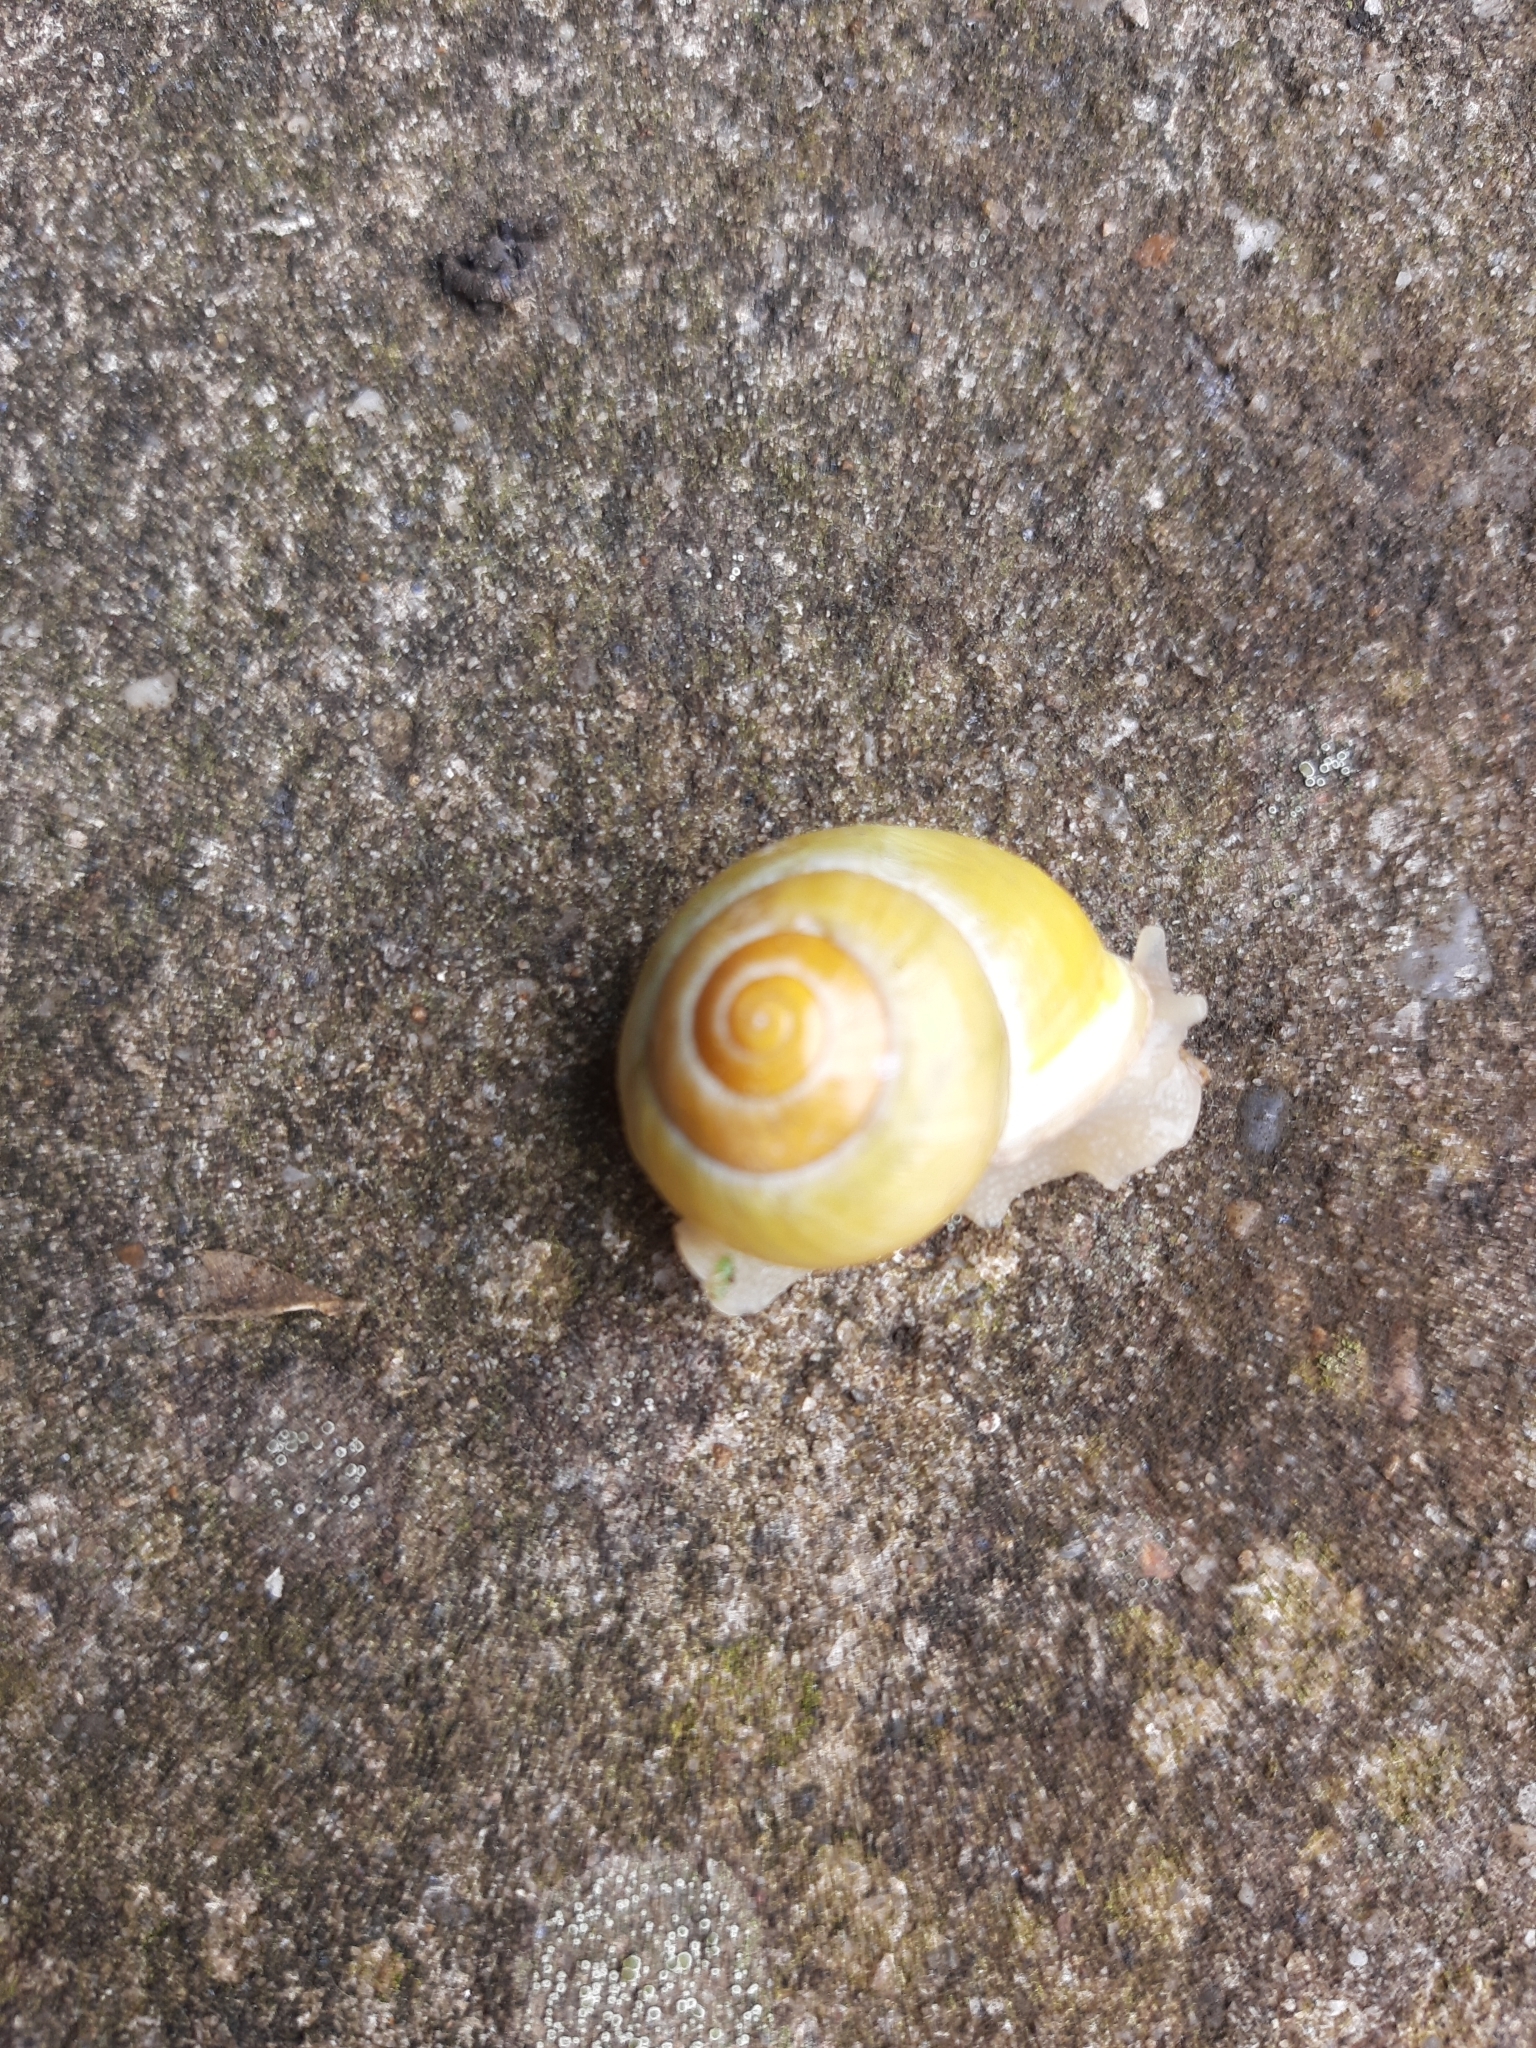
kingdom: Animalia
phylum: Mollusca
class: Gastropoda
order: Stylommatophora
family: Helicidae
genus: Cepaea
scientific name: Cepaea hortensis
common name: White-lip gardensnail
